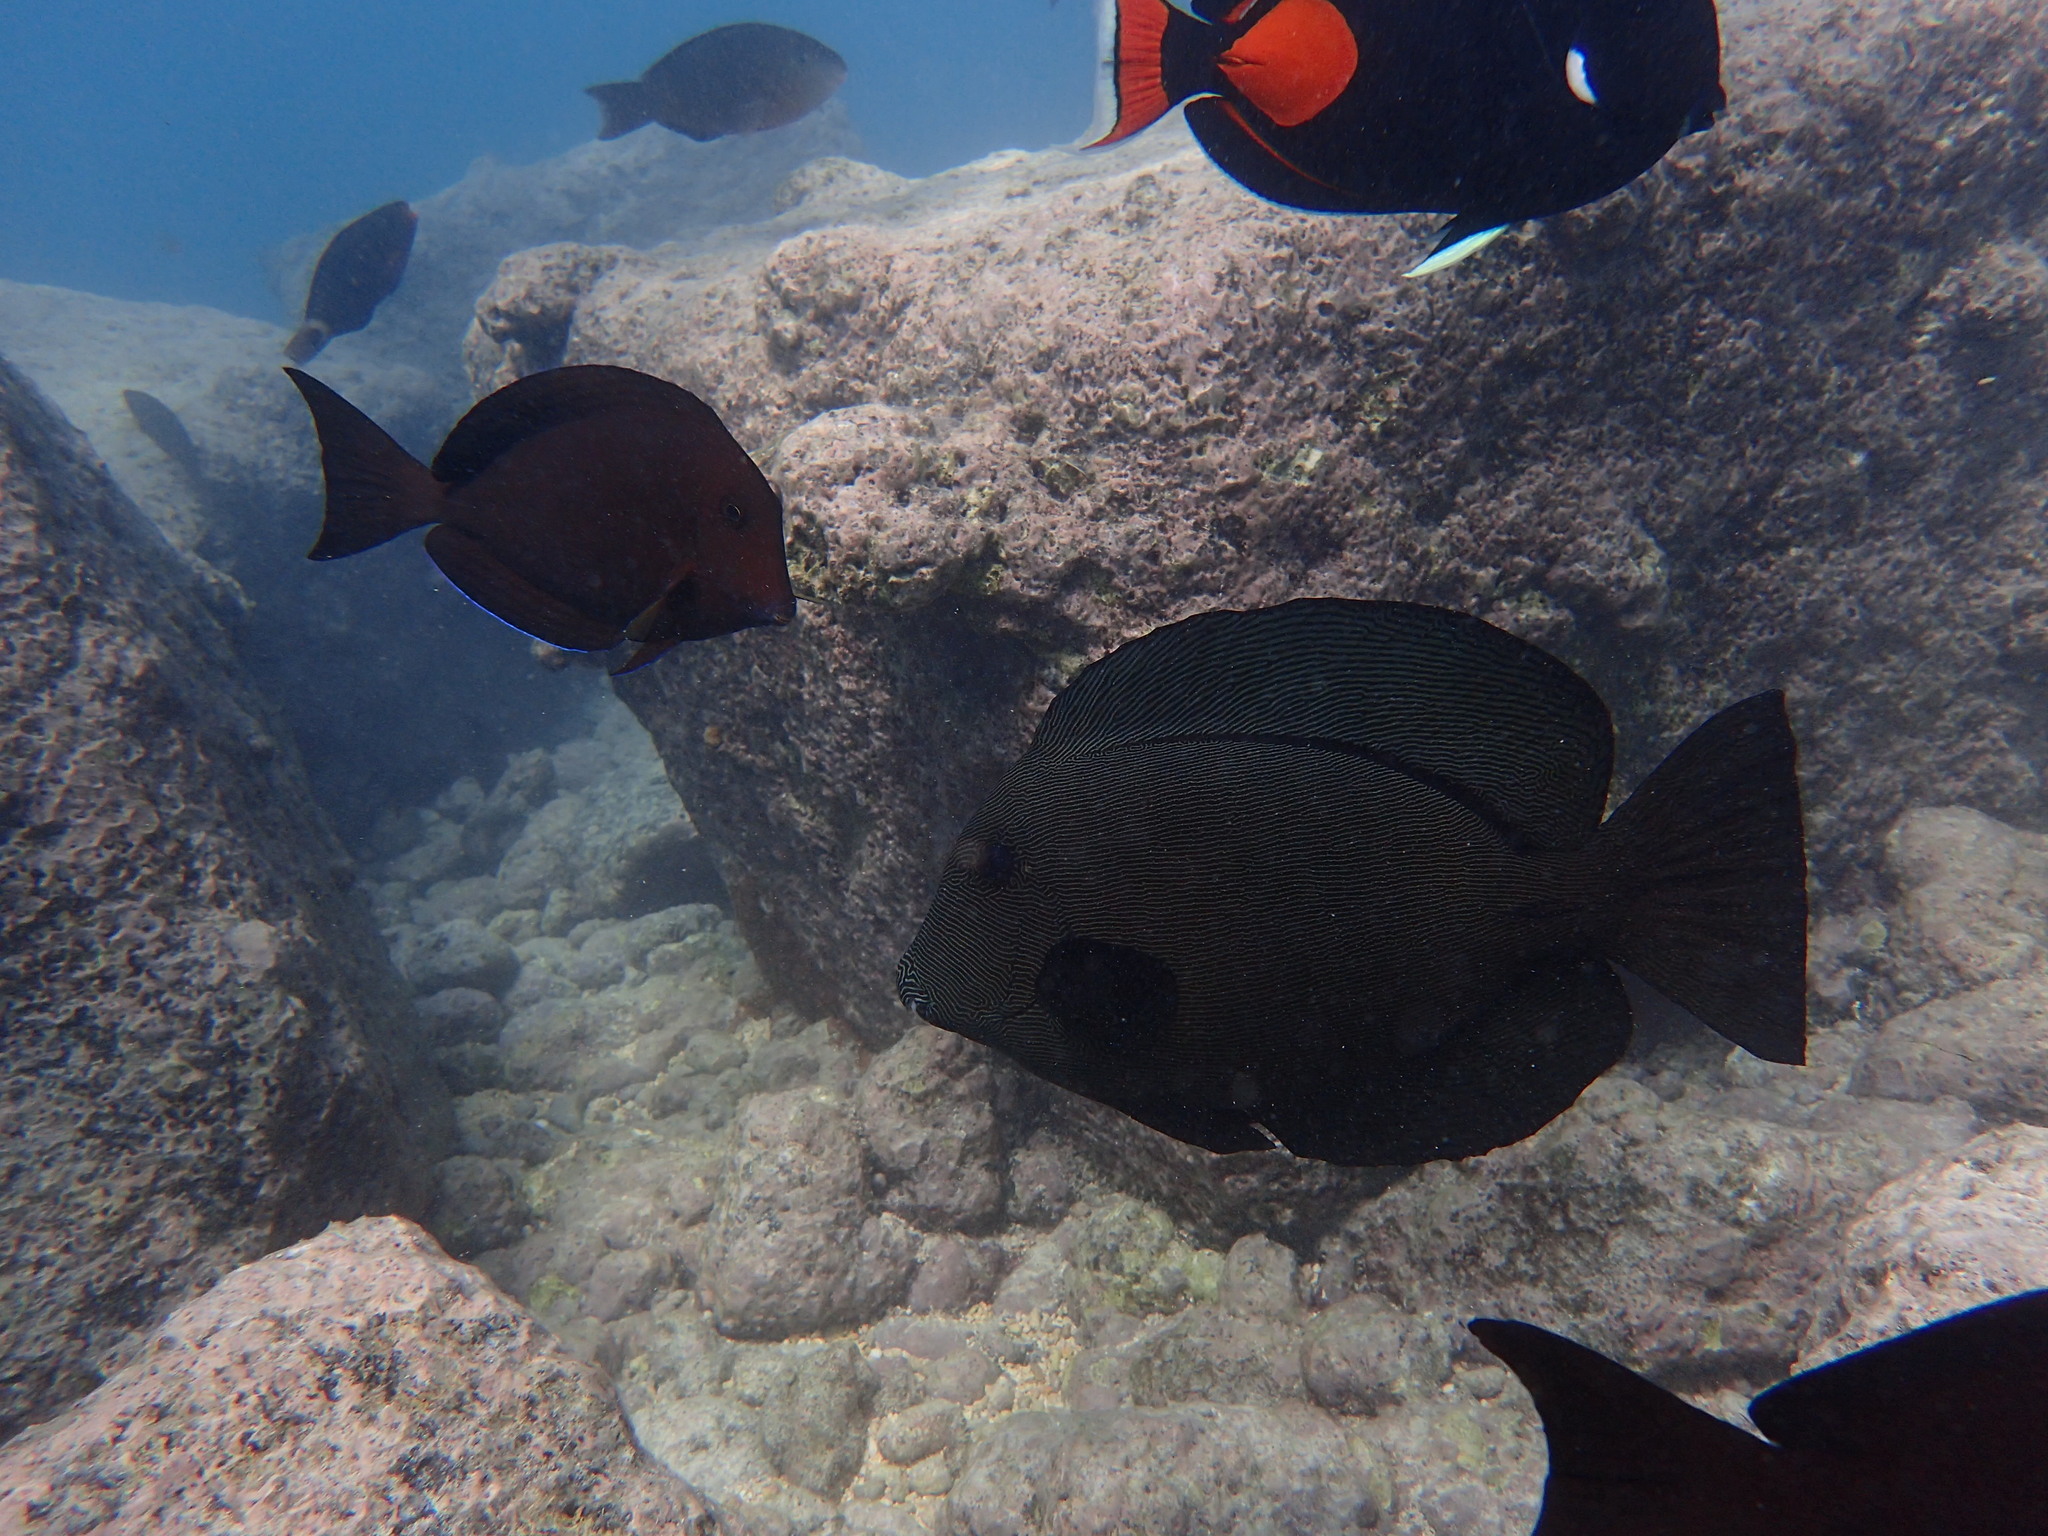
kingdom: Animalia
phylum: Chordata
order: Perciformes
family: Acanthuridae
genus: Ctenochaetus
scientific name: Ctenochaetus hawaiiensis
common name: Hawaiian surgeonfish
